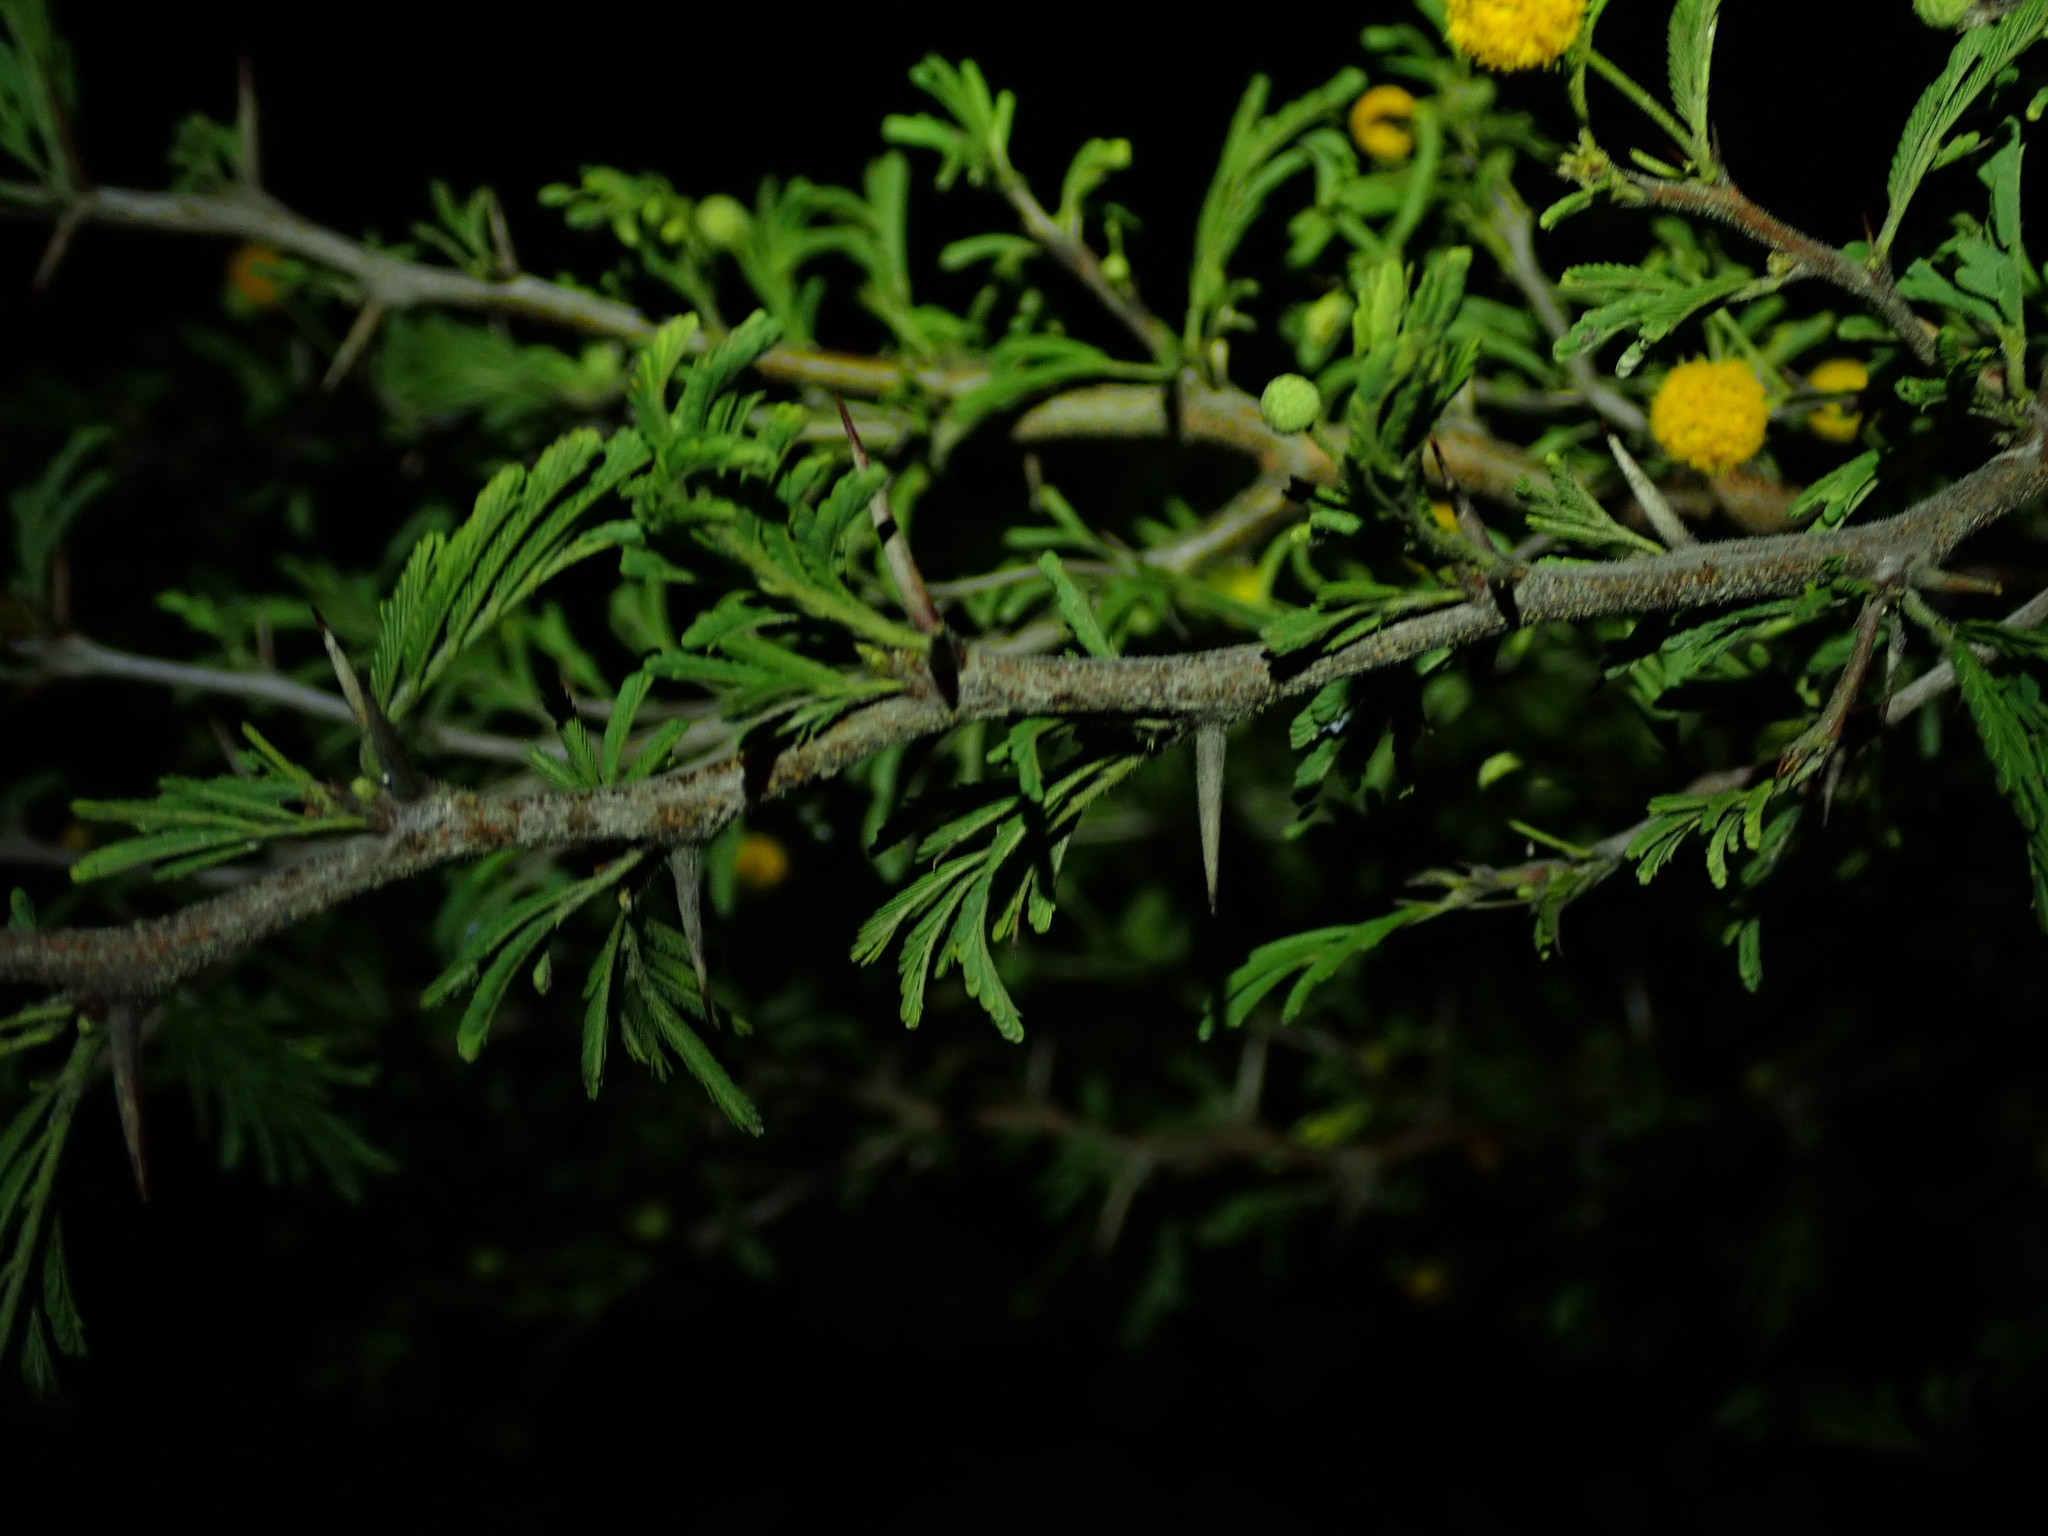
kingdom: Plantae
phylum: Tracheophyta
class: Magnoliopsida
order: Fabales
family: Fabaceae
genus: Vachellia
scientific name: Vachellia tortuosa
